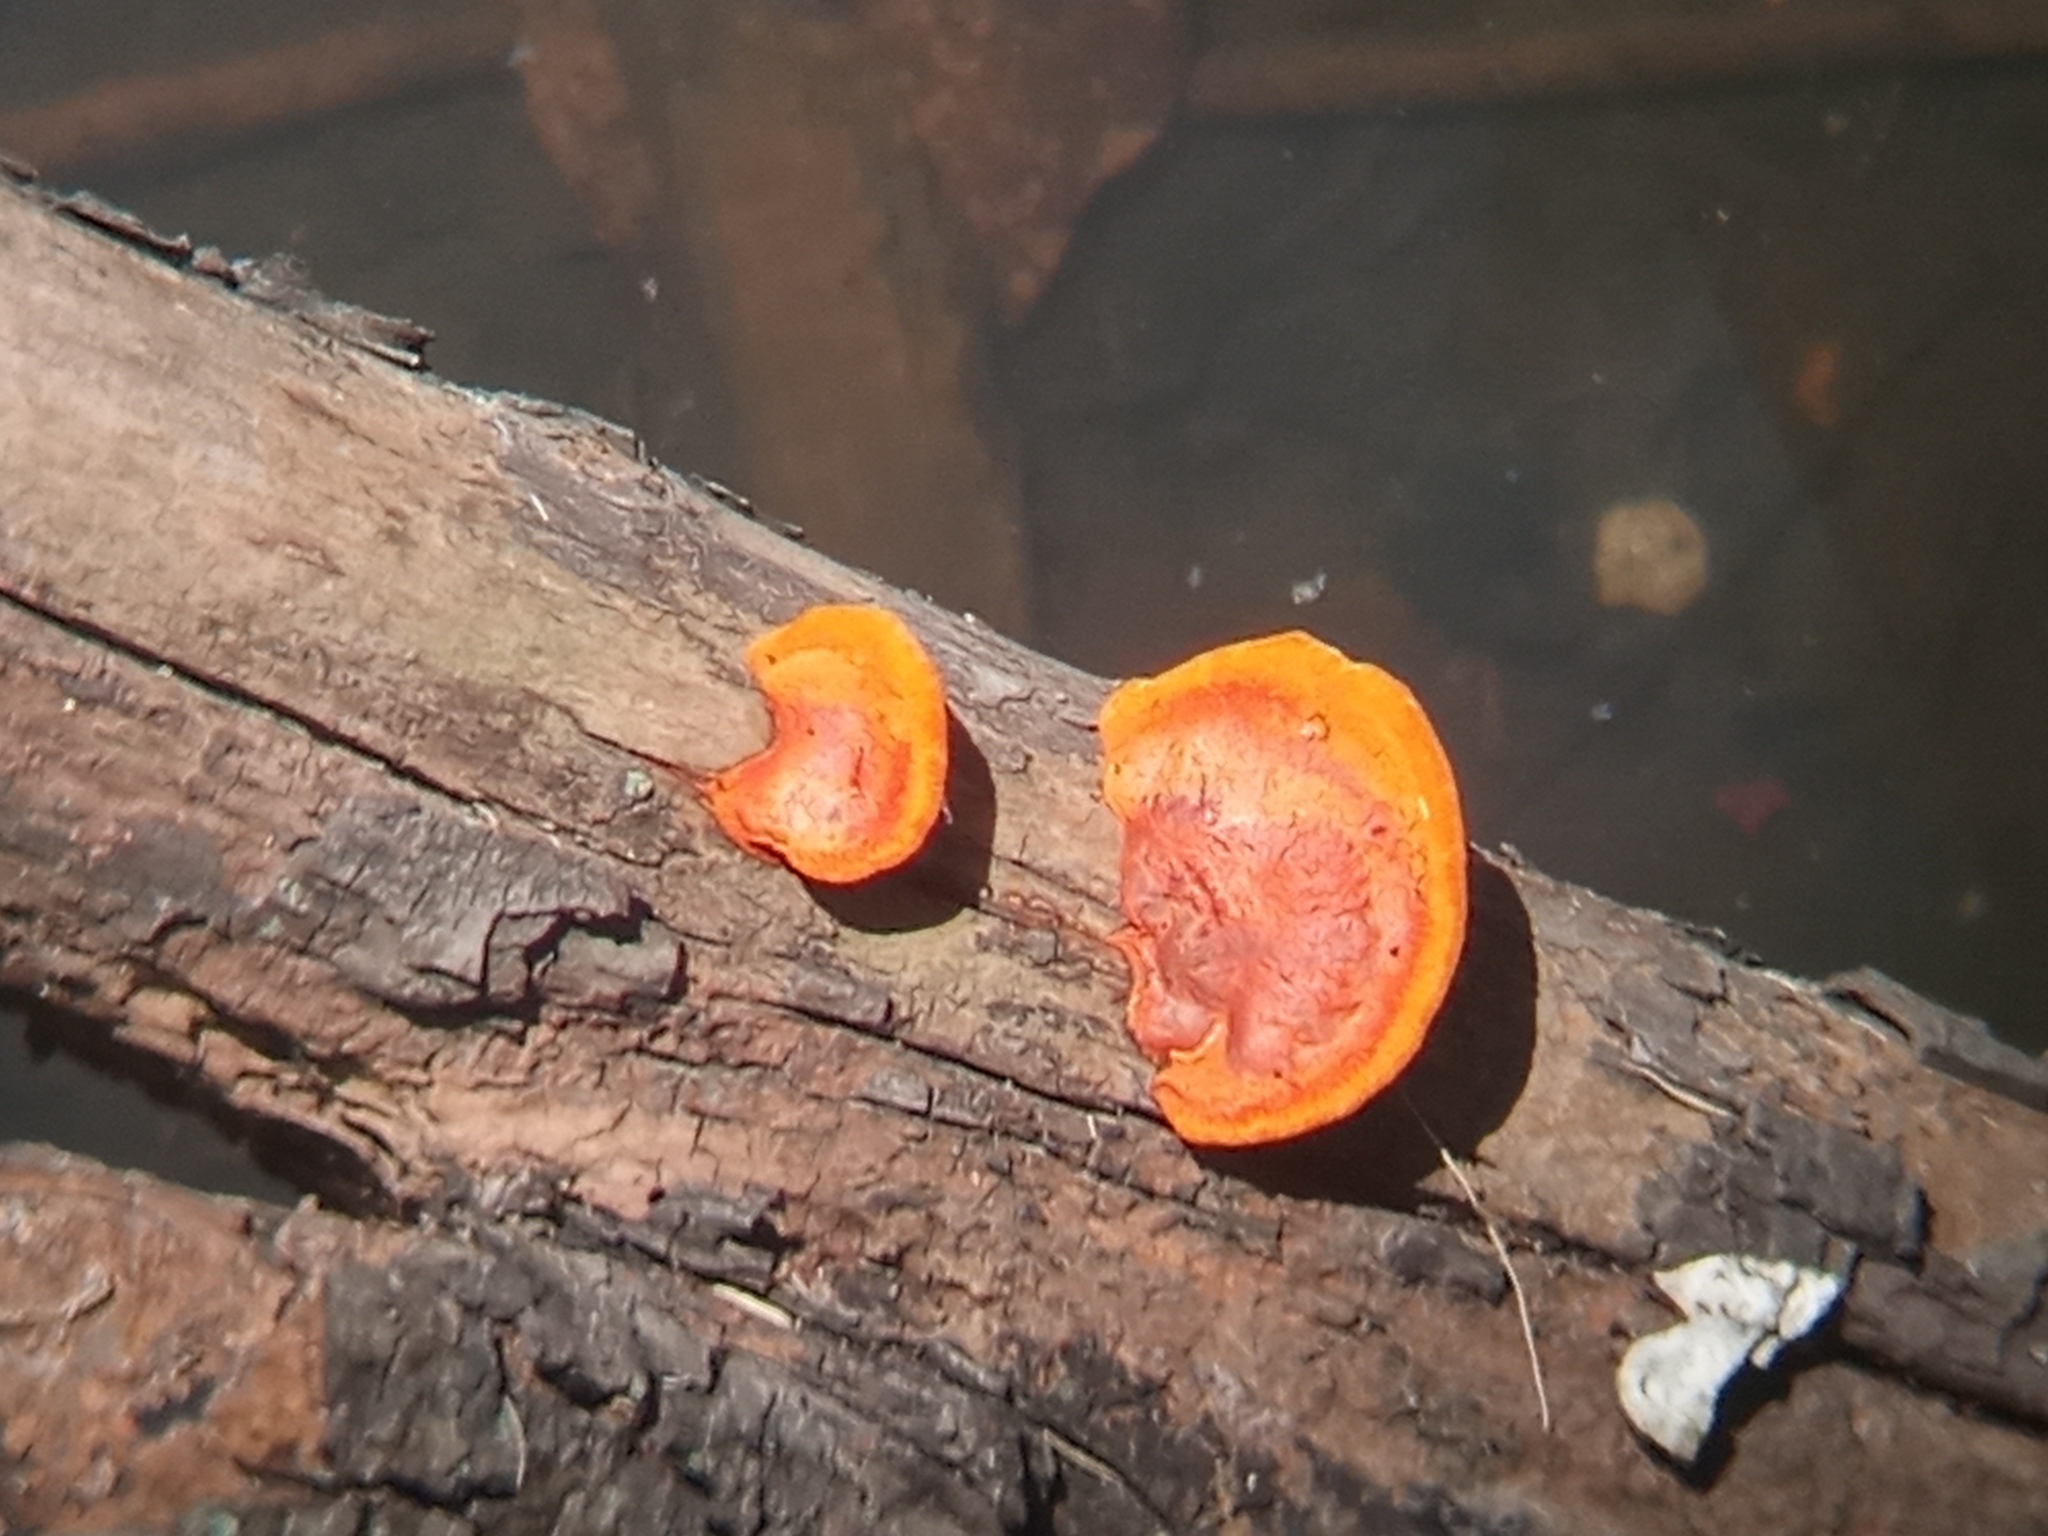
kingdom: Fungi
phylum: Basidiomycota
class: Agaricomycetes
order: Polyporales
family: Polyporaceae
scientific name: Polyporaceae
